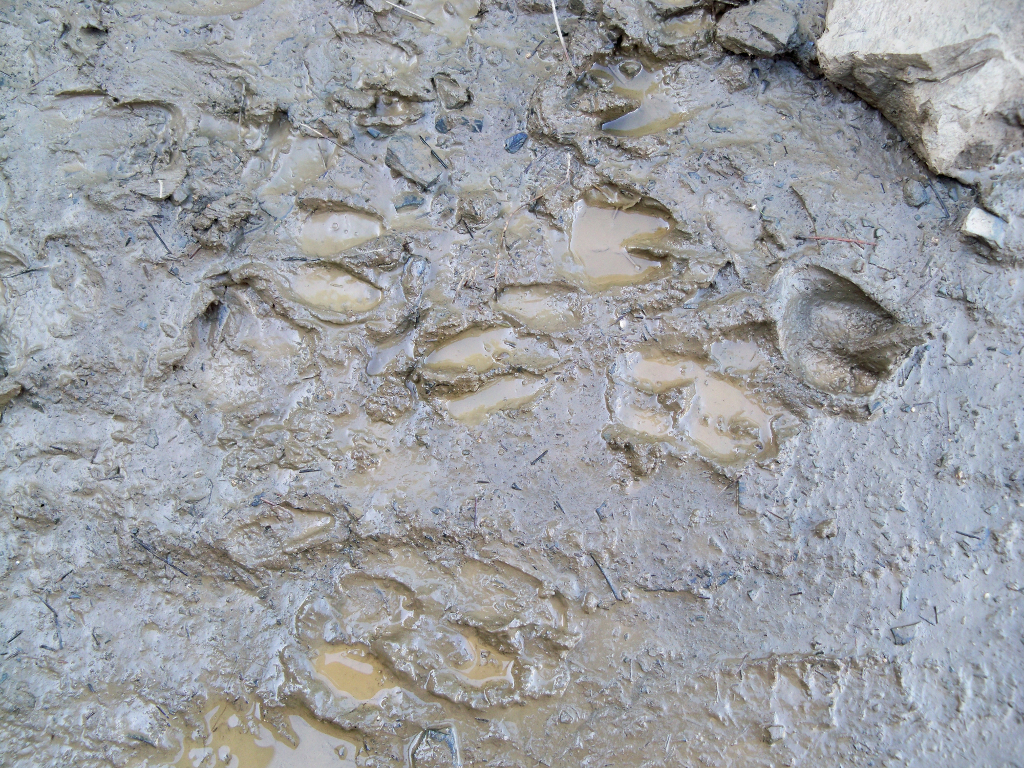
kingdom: Animalia
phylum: Chordata
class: Mammalia
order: Artiodactyla
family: Suidae
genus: Sus
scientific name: Sus scrofa
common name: Wild boar
